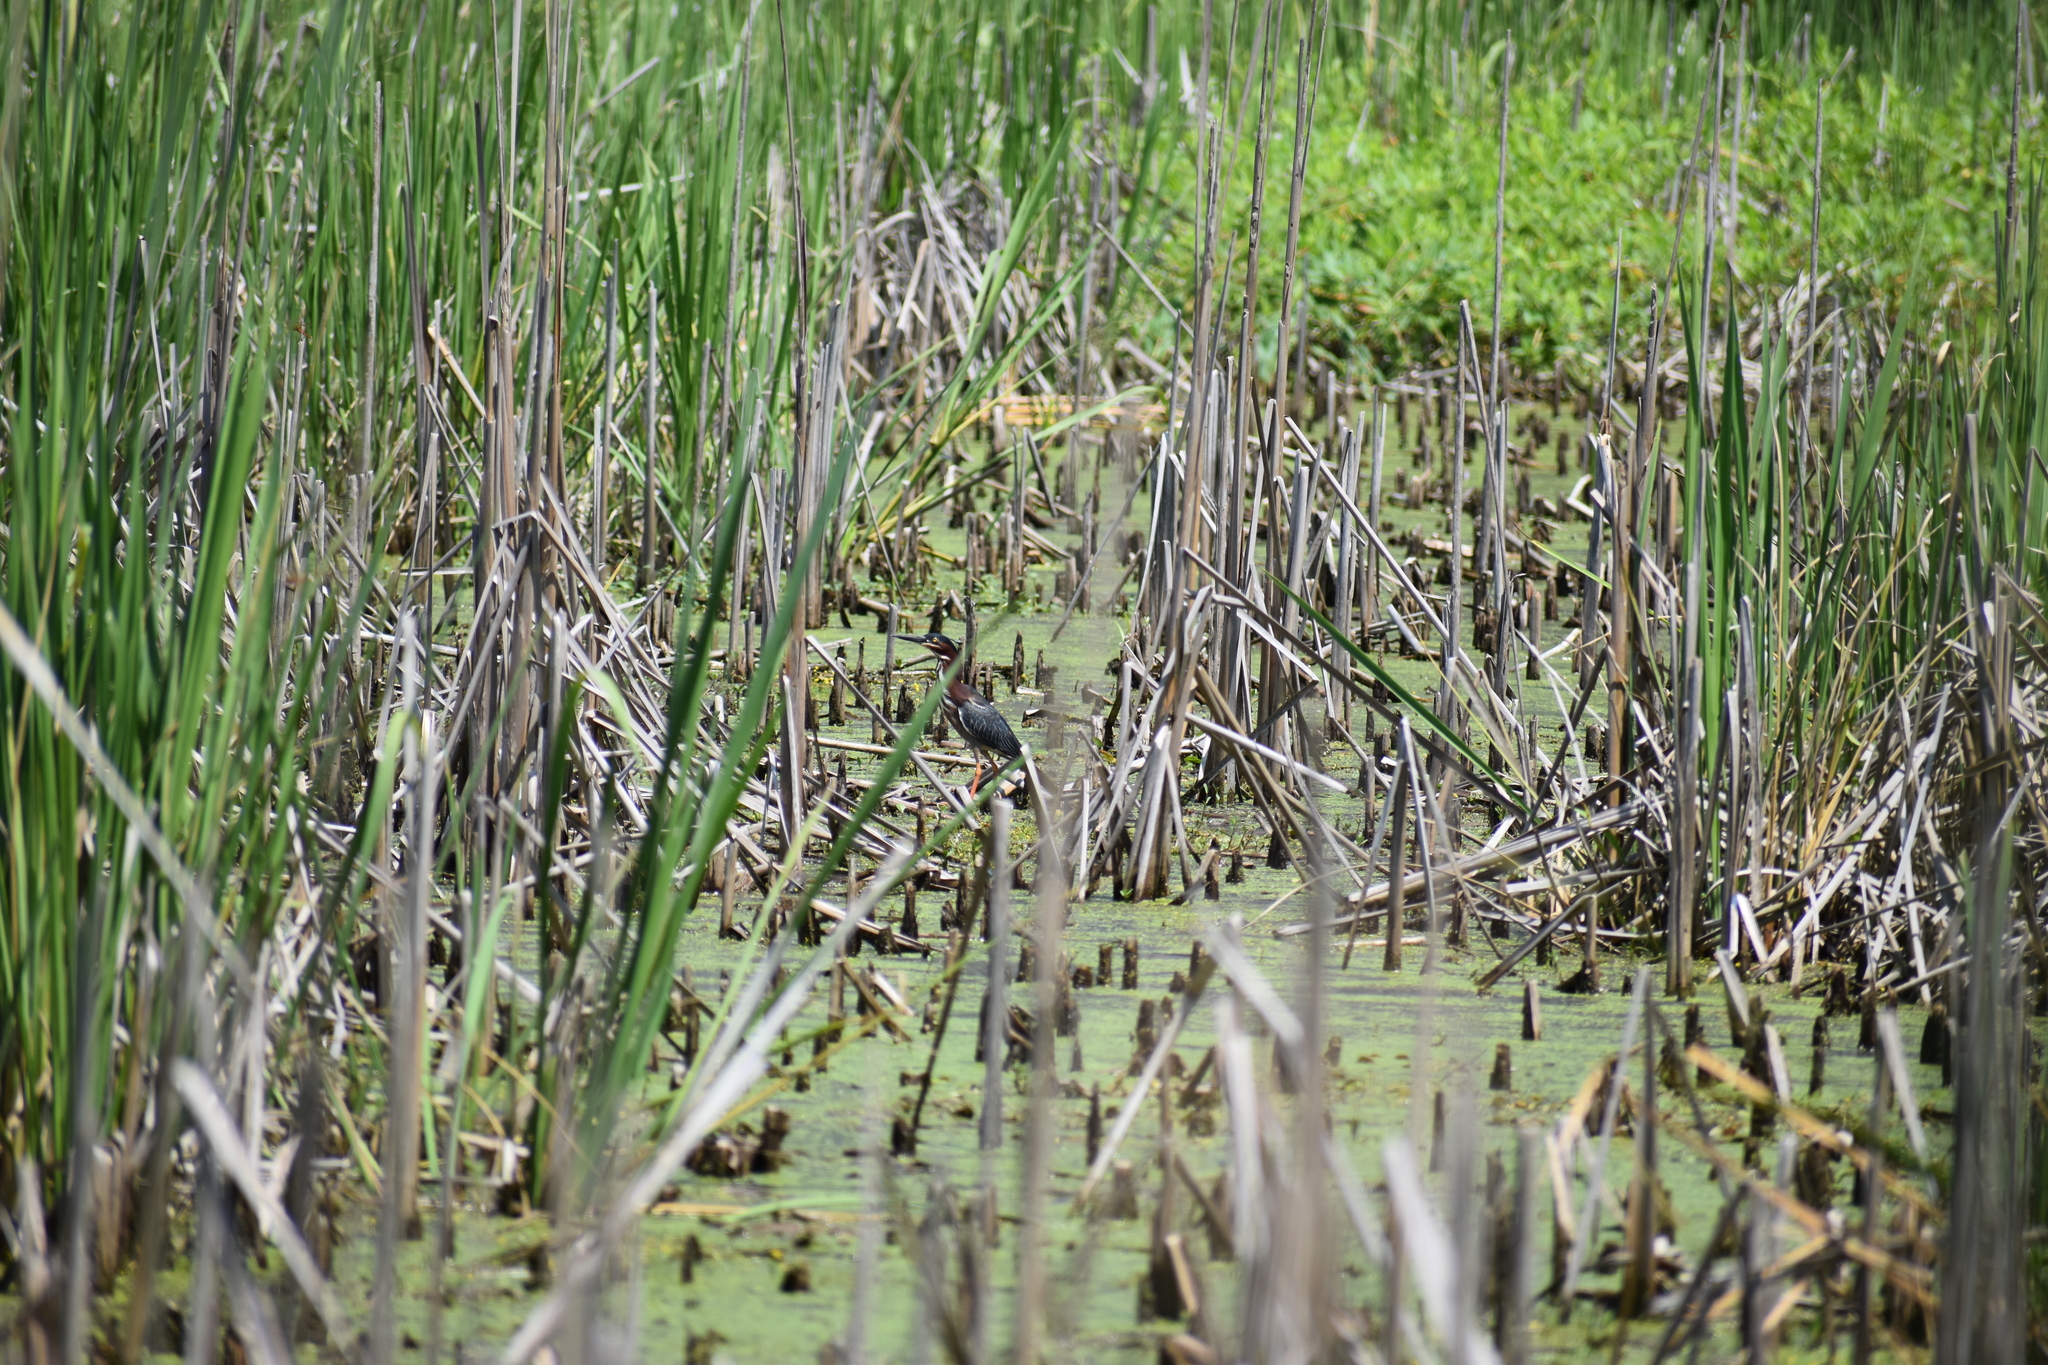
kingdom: Animalia
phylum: Chordata
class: Aves
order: Pelecaniformes
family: Ardeidae
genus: Butorides
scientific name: Butorides virescens
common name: Green heron
